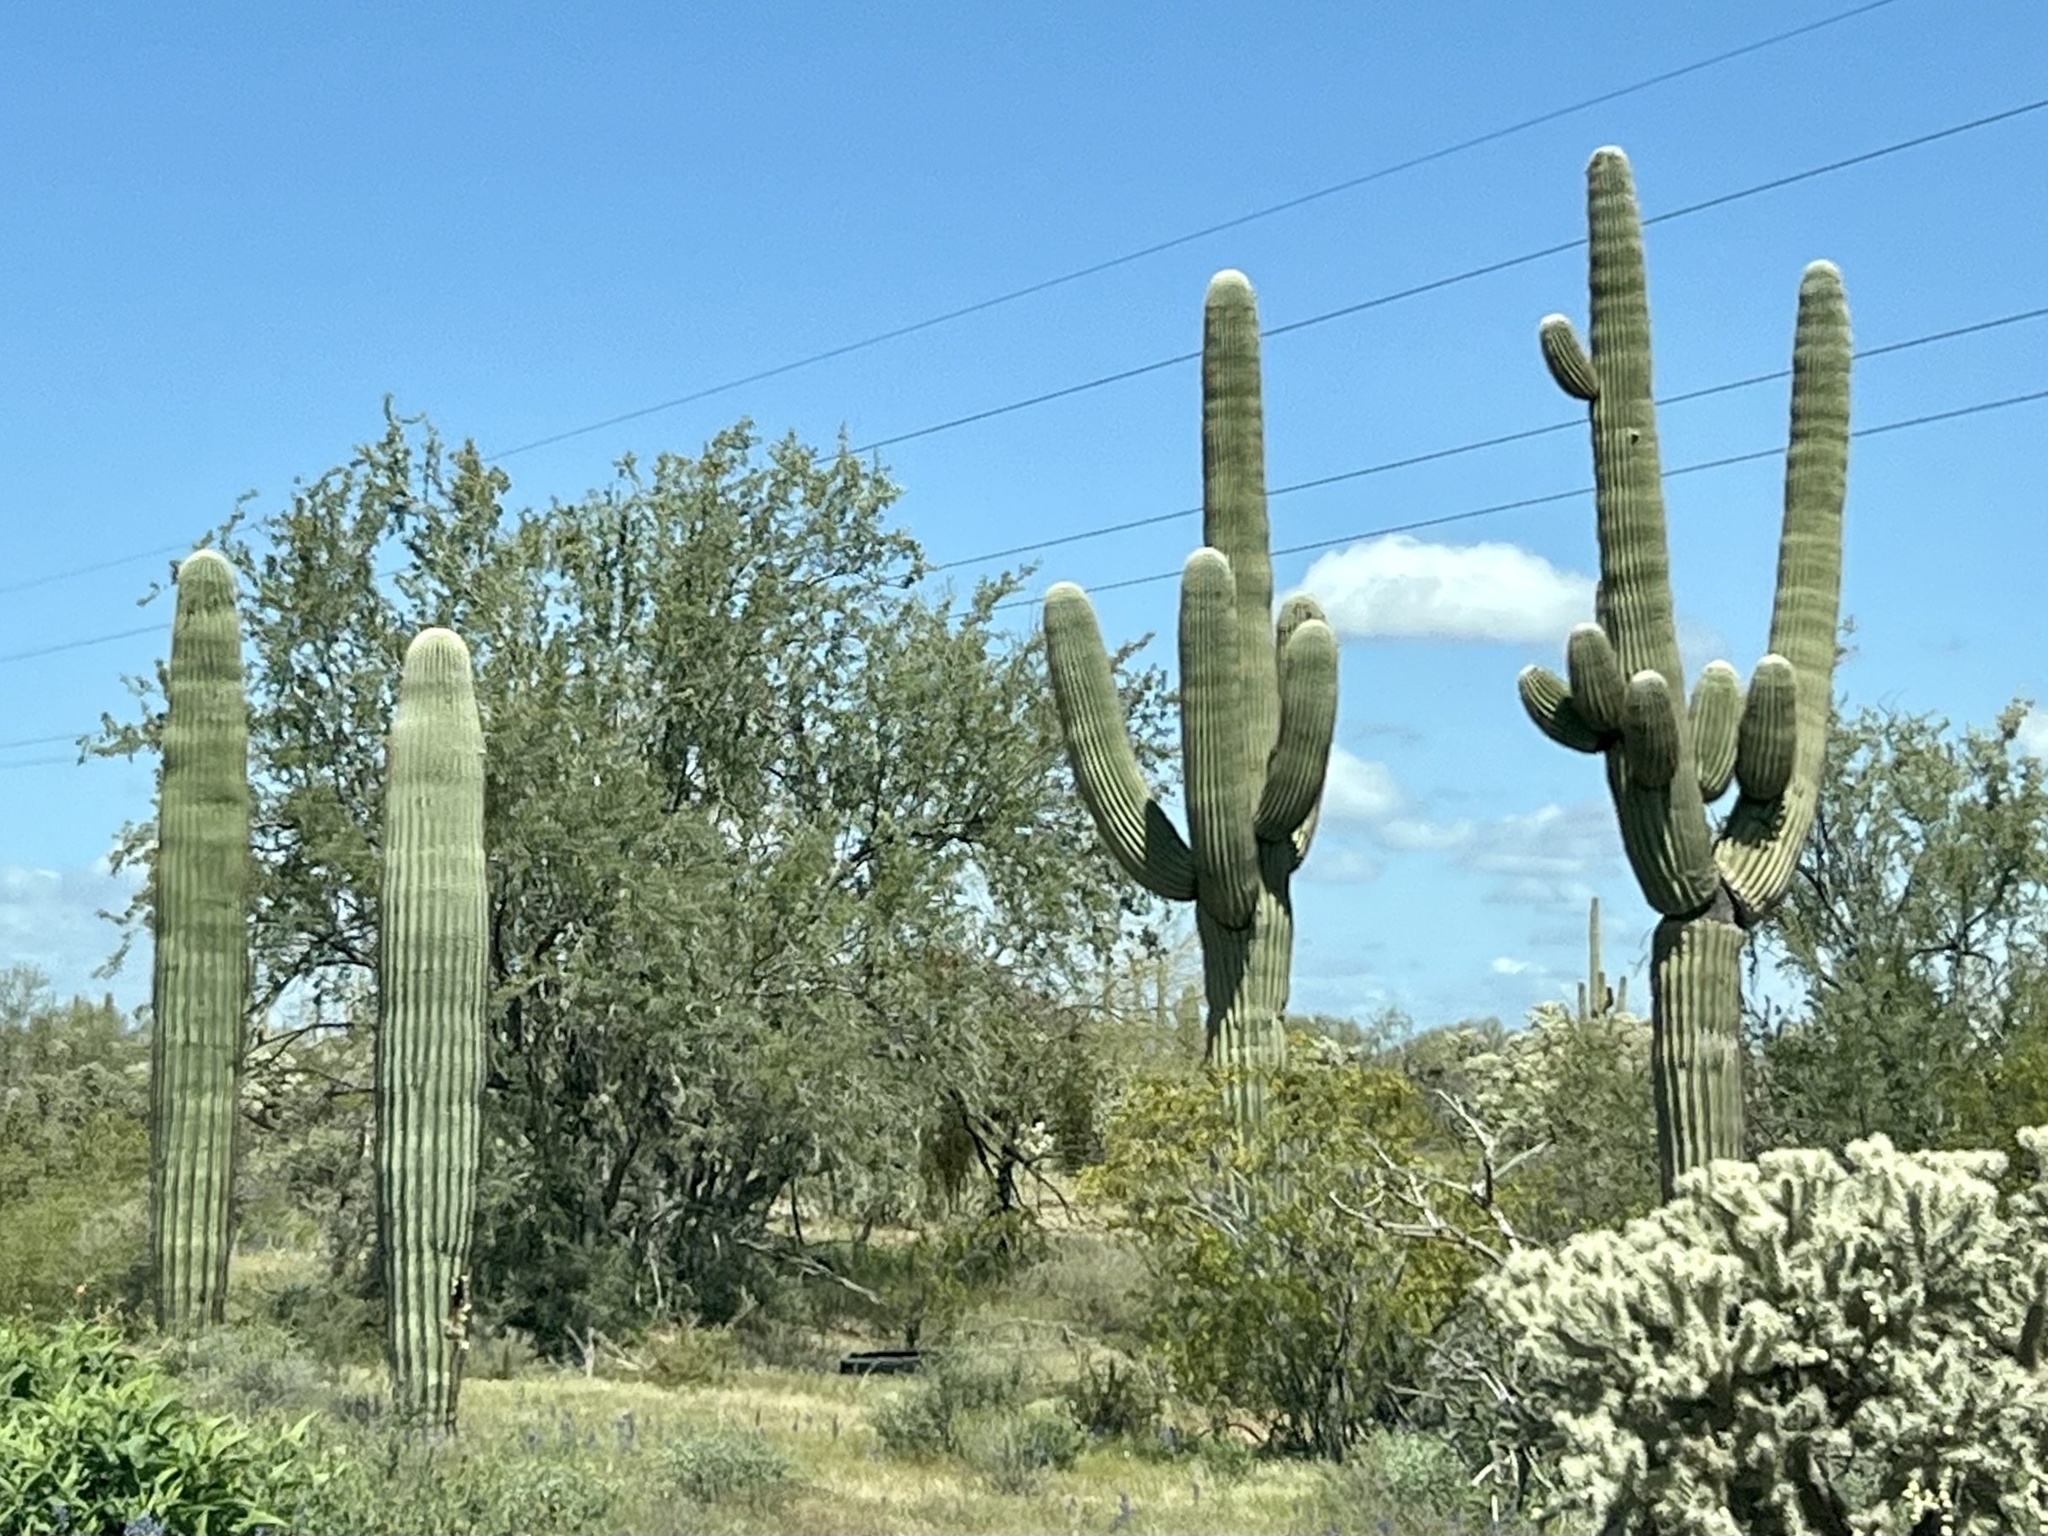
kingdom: Plantae
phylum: Tracheophyta
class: Magnoliopsida
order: Caryophyllales
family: Cactaceae
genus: Carnegiea
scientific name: Carnegiea gigantea
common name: Saguaro
